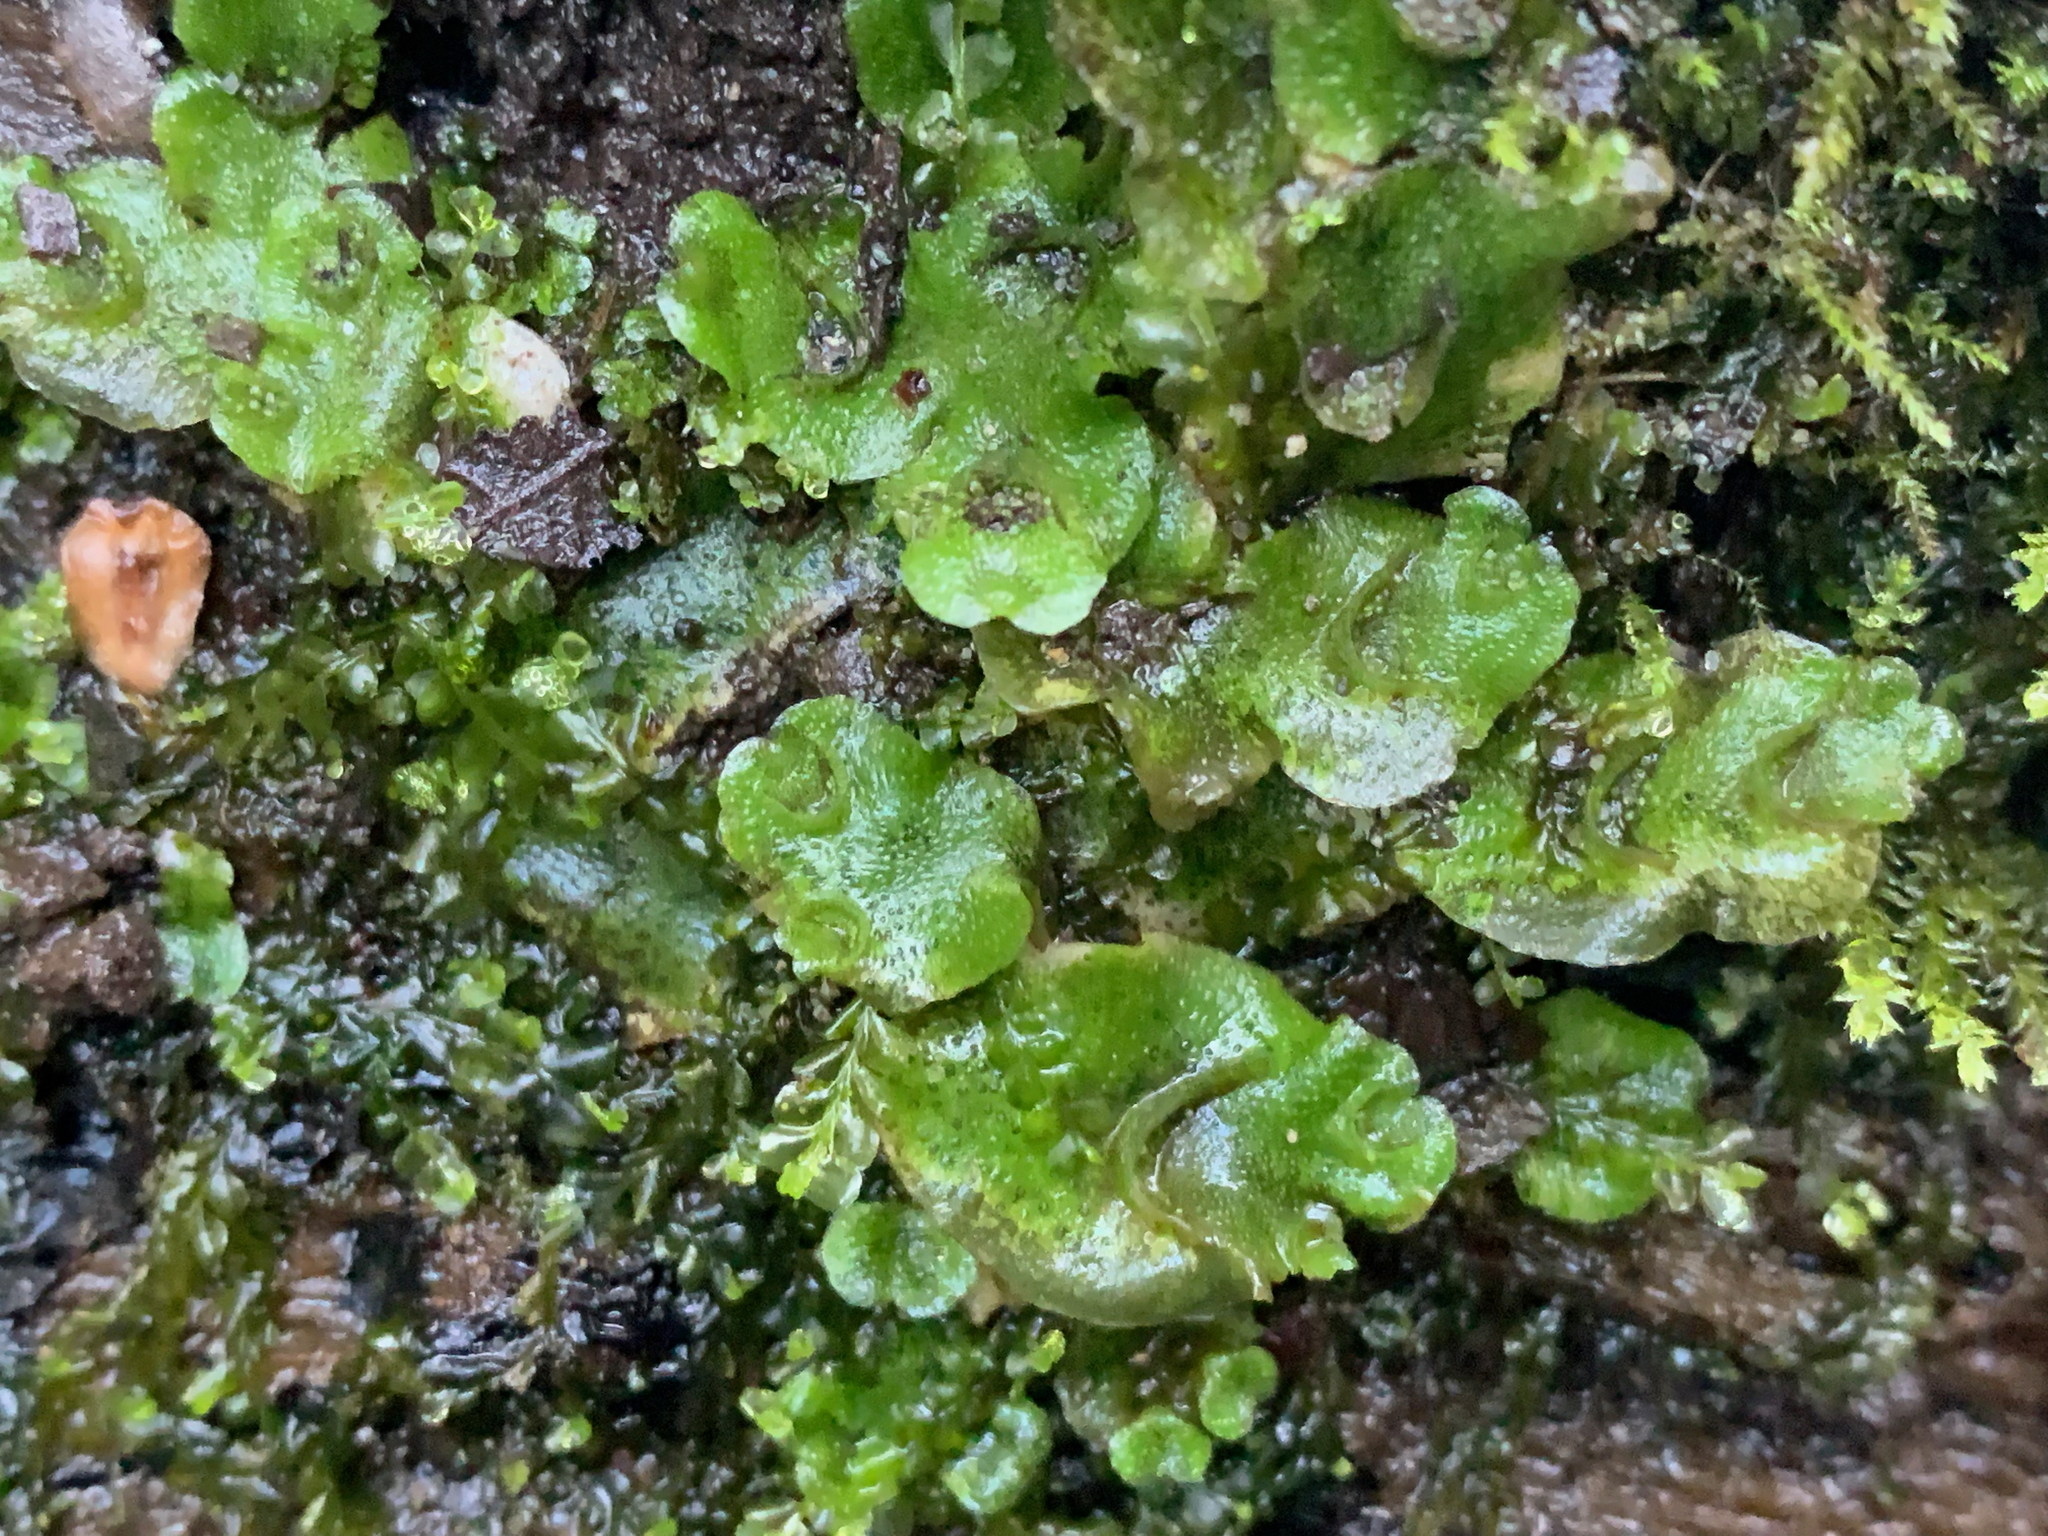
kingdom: Plantae
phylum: Marchantiophyta
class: Marchantiopsida
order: Lunulariales
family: Lunulariaceae
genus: Lunularia
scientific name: Lunularia cruciata
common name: Crescent-cup liverwort
